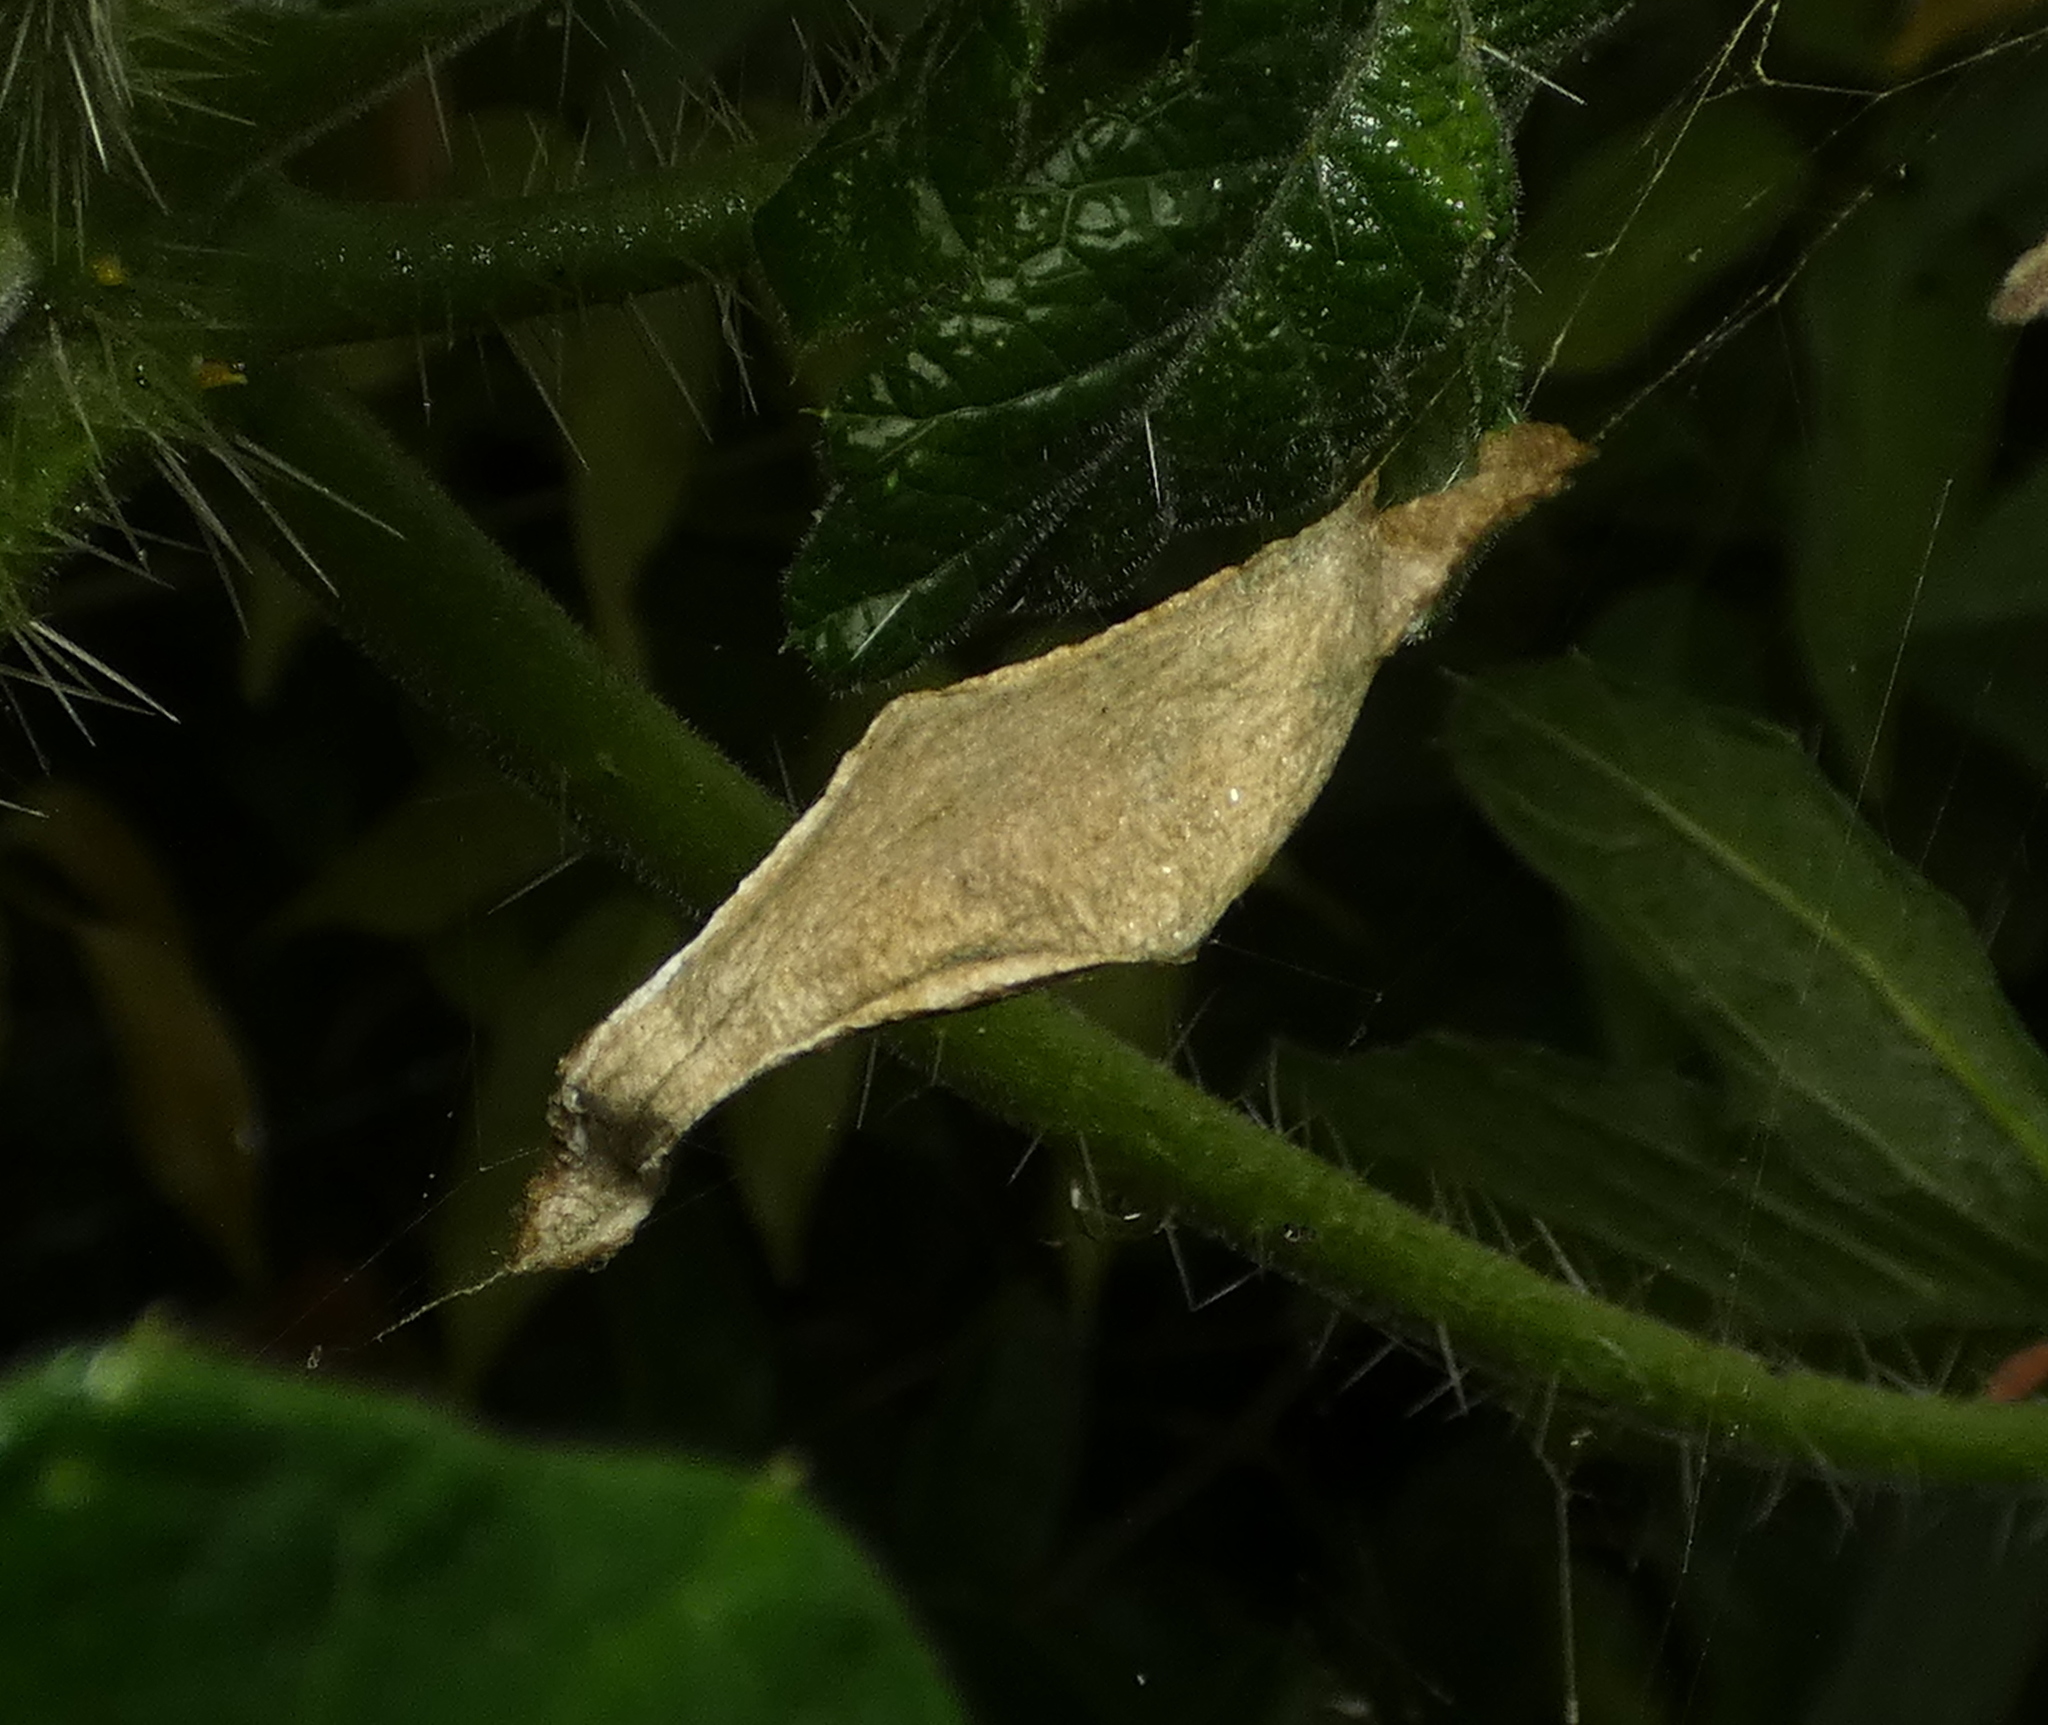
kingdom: Animalia
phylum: Arthropoda
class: Arachnida
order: Araneae
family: Araneidae
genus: Argiope
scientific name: Argiope argentata
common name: Orb weavers
